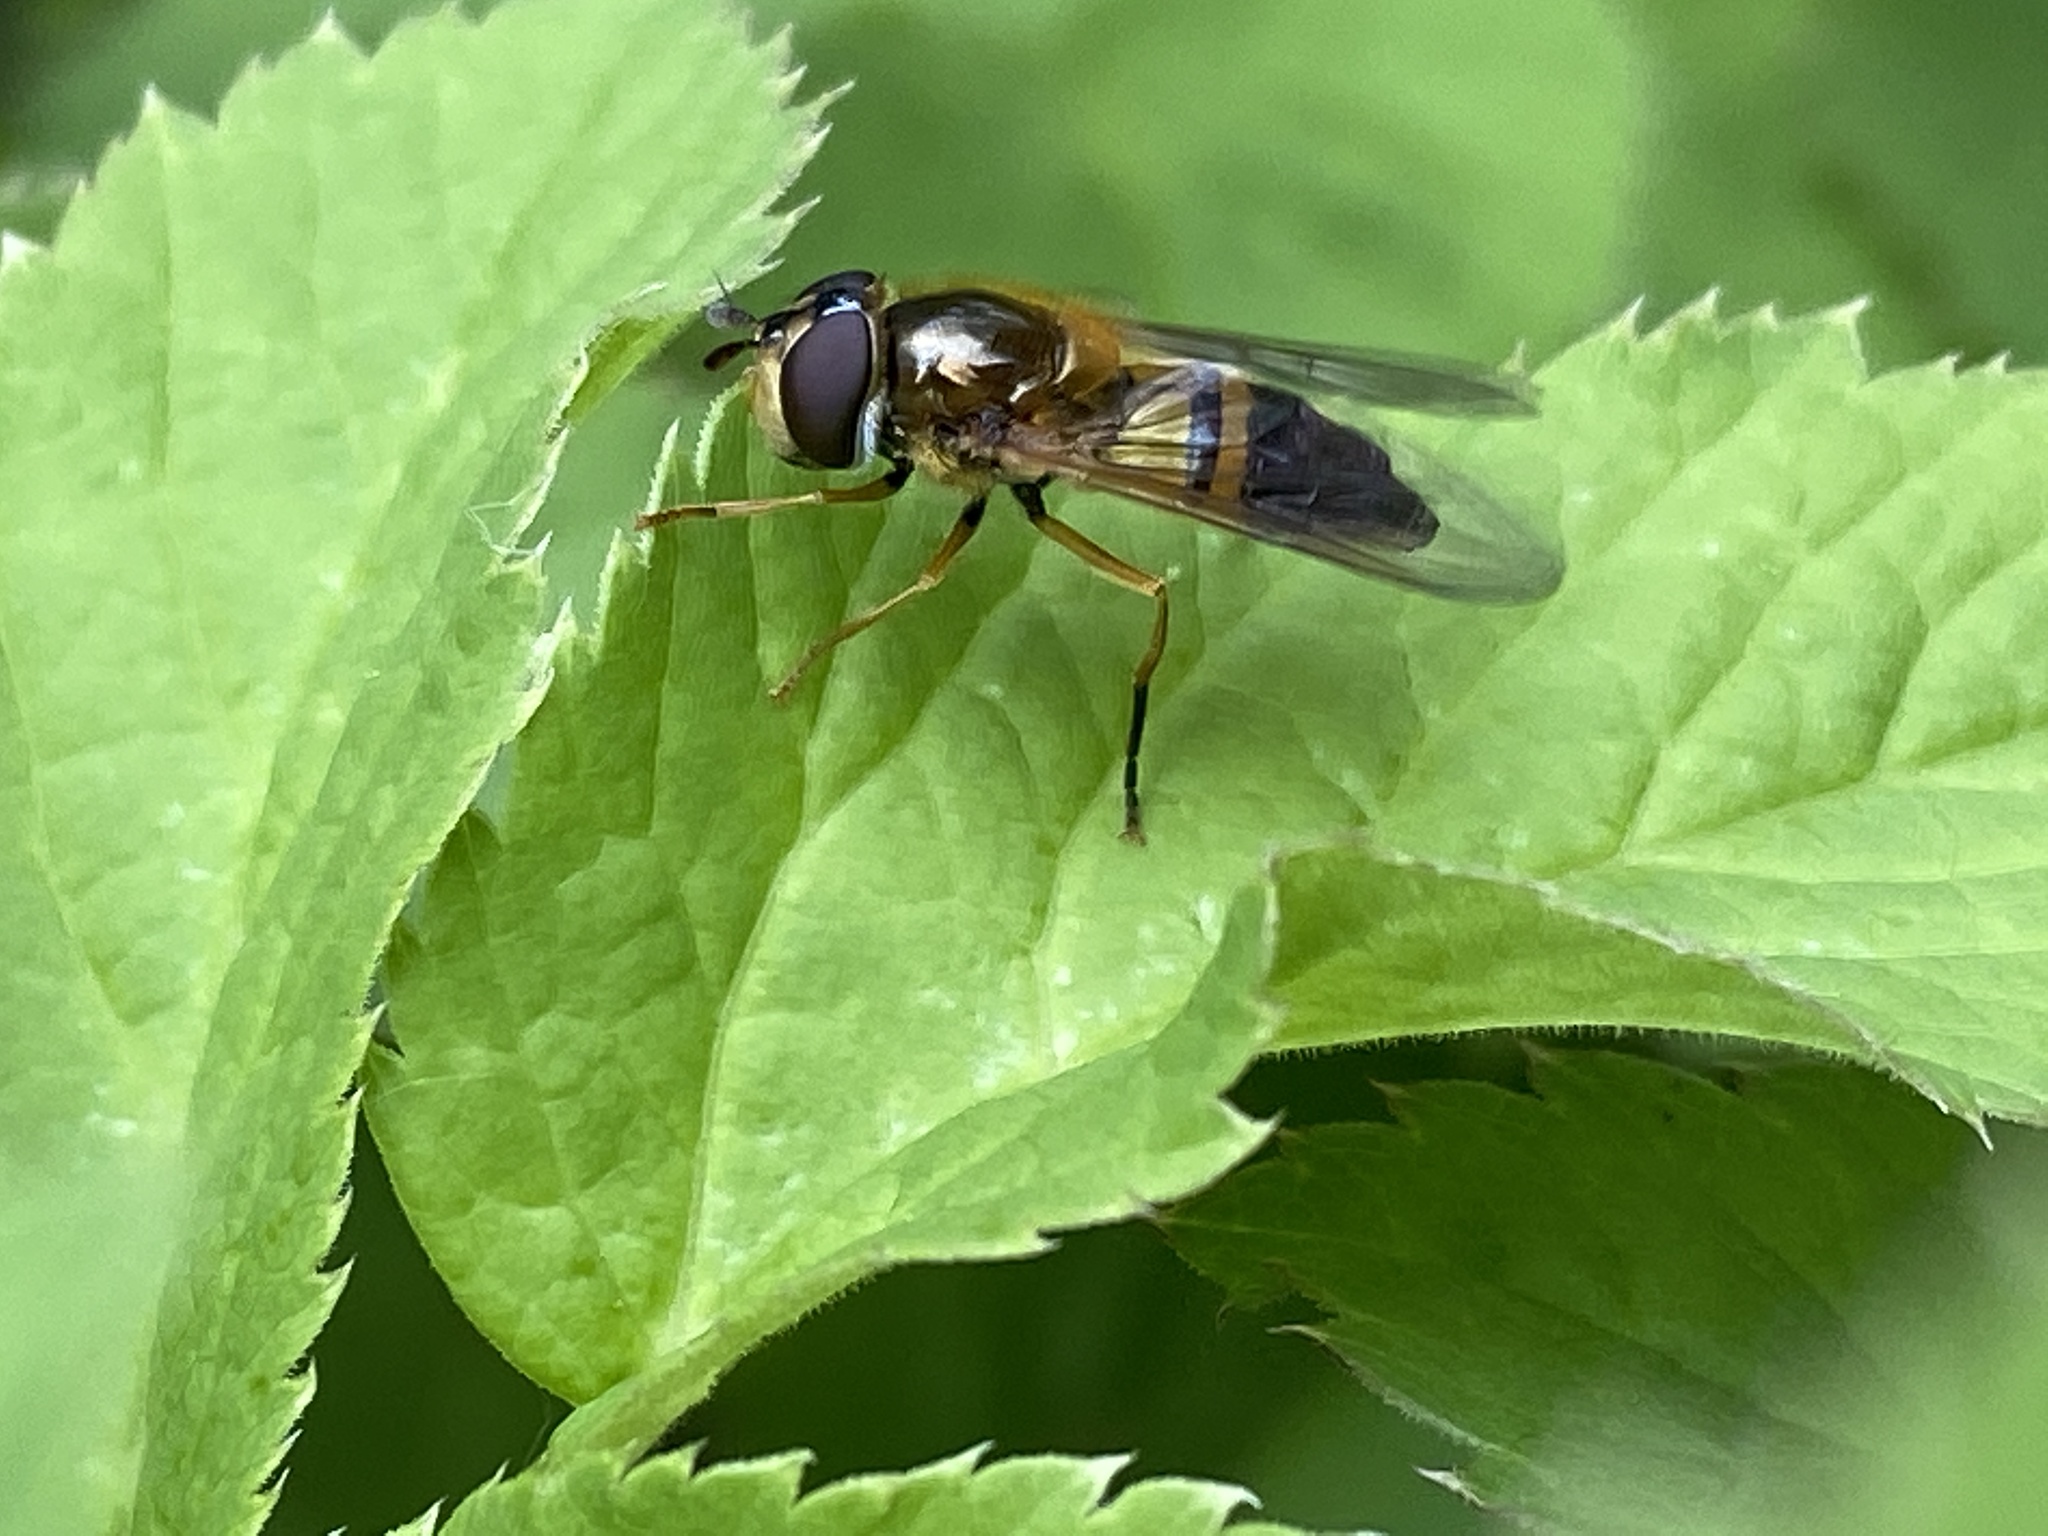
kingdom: Animalia
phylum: Arthropoda
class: Insecta
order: Diptera
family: Syrphidae
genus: Epistrophe
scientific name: Epistrophe eligans
